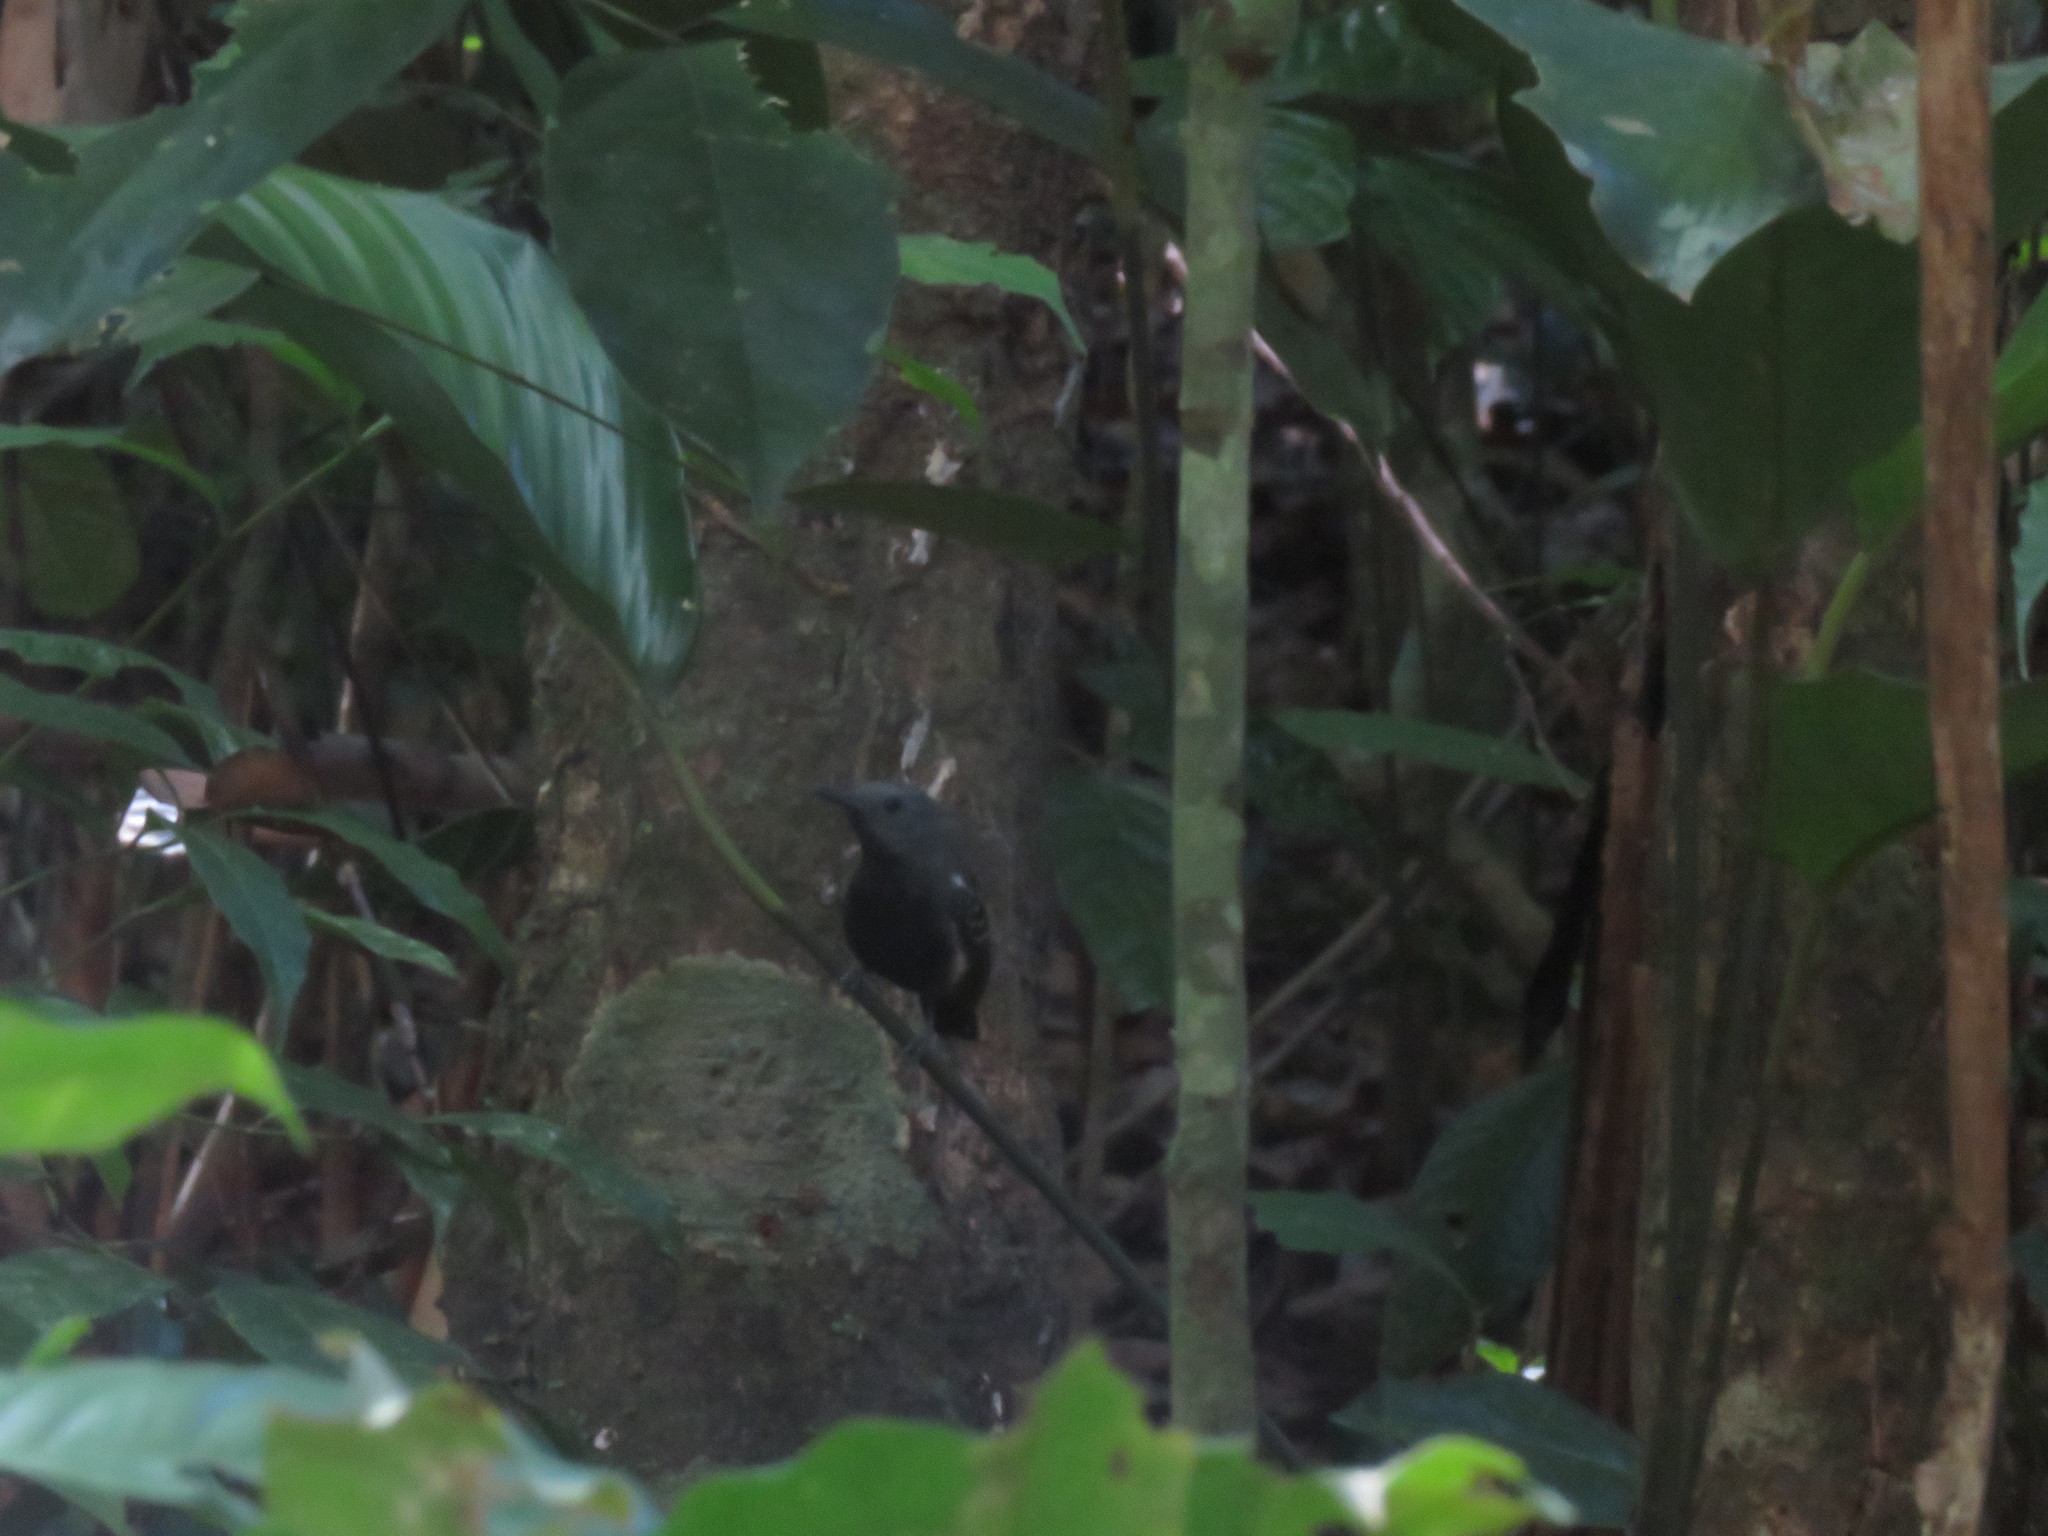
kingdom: Animalia
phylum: Chordata
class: Aves
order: Passeriformes
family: Thamnophilidae
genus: Myrmotherula
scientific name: Myrmotherula axillaris
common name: White-flanked antwren
